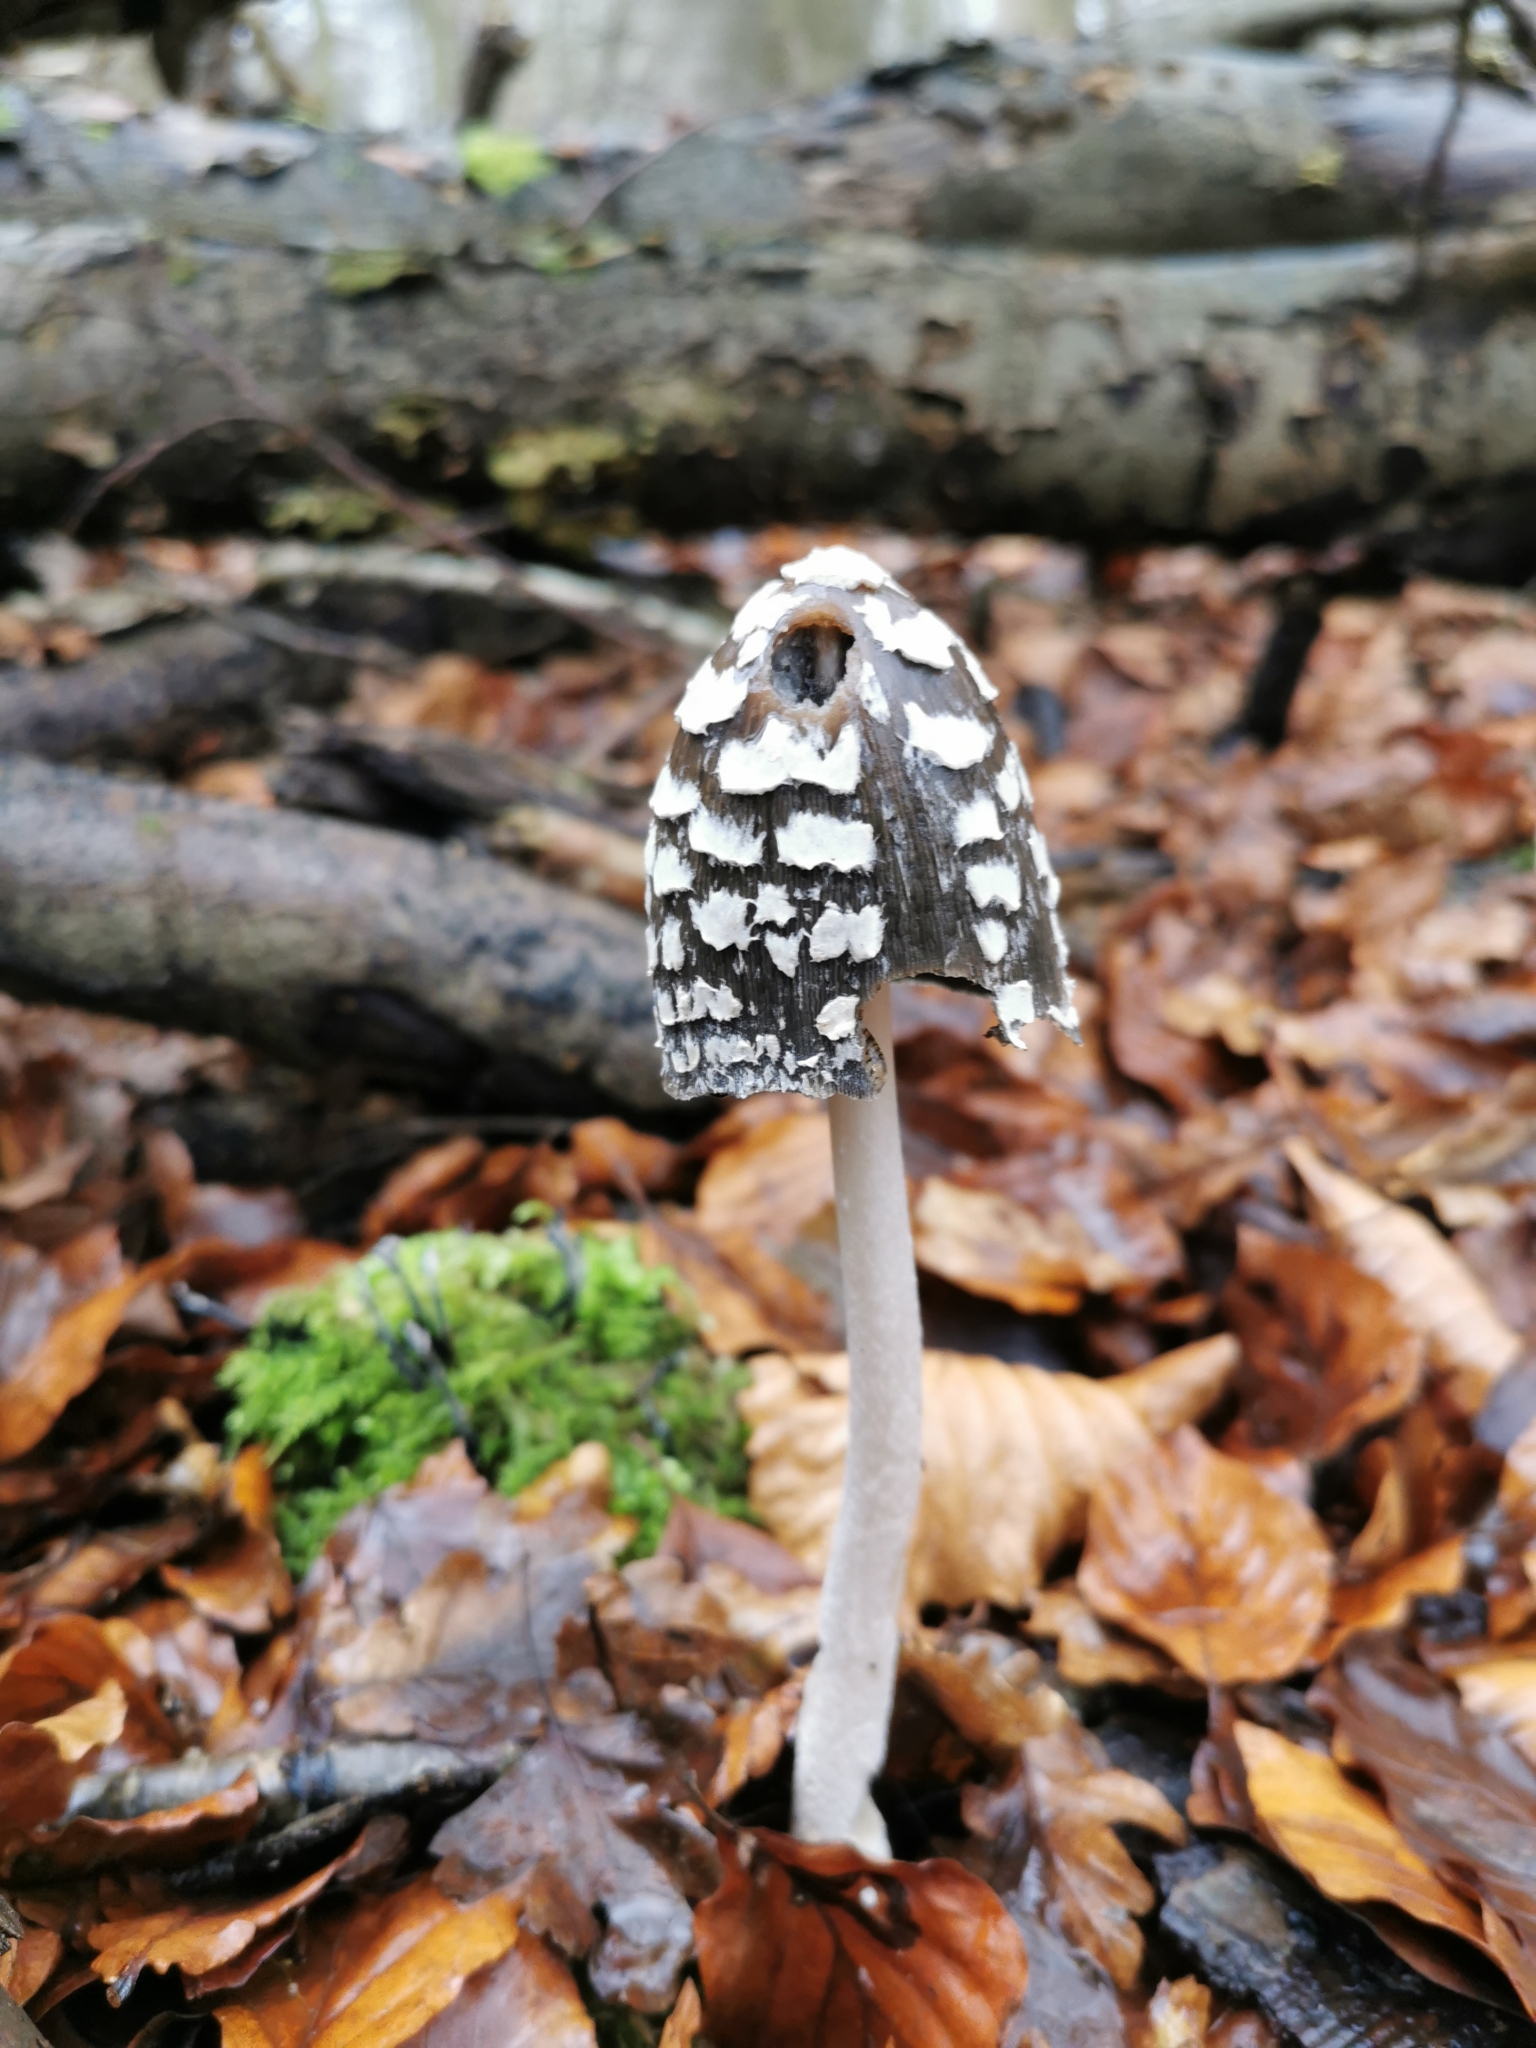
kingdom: Fungi
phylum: Basidiomycota
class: Agaricomycetes
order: Agaricales
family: Psathyrellaceae
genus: Coprinopsis
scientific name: Coprinopsis picacea
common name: Magpie inkcap
